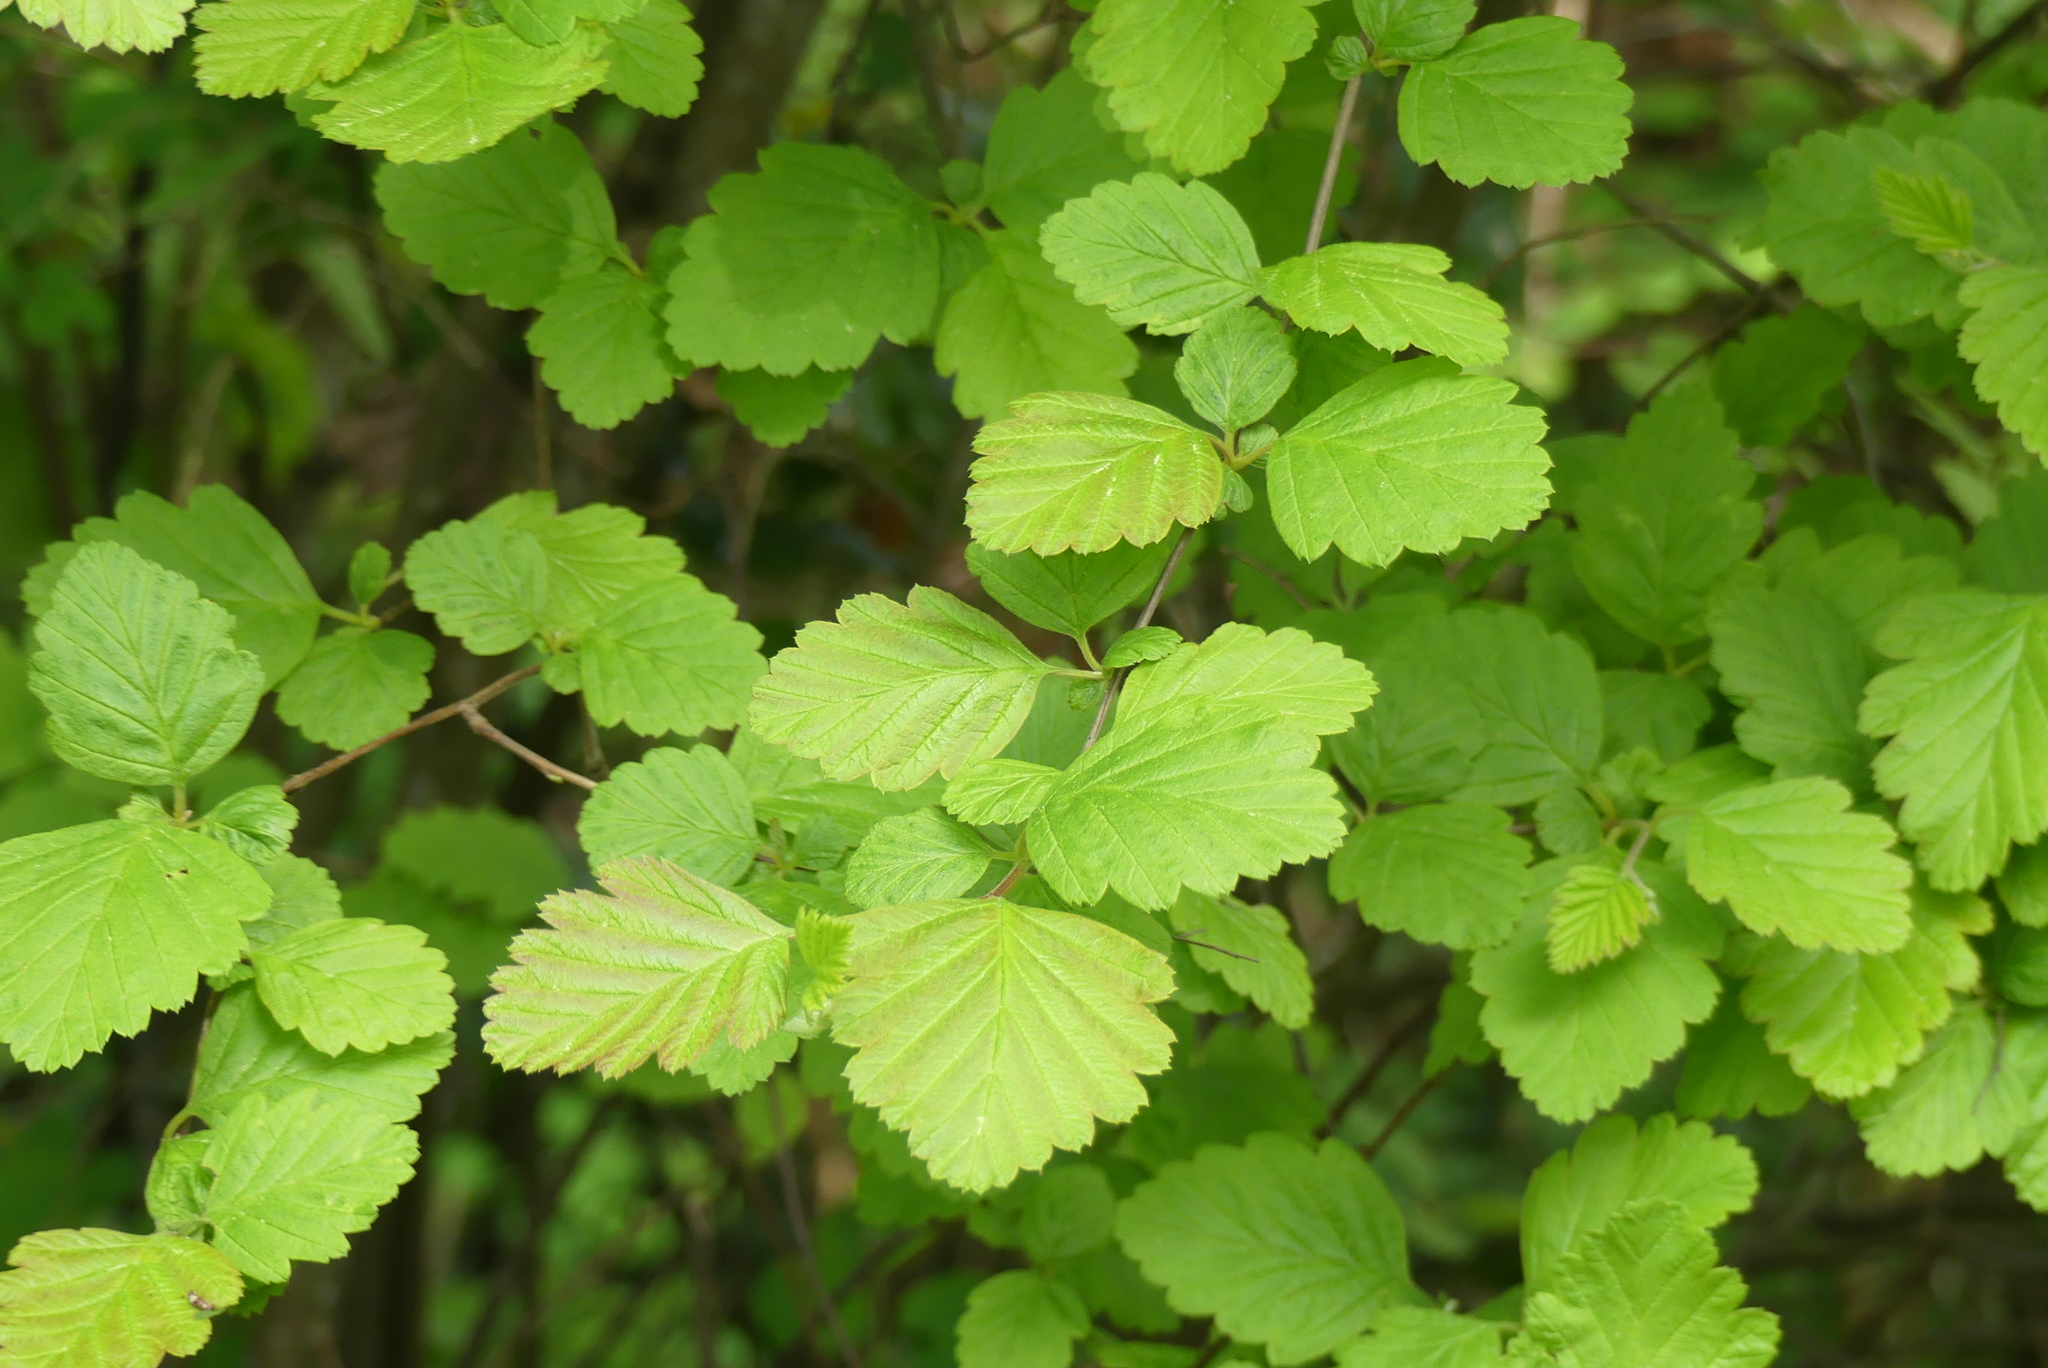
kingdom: Plantae
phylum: Tracheophyta
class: Magnoliopsida
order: Rosales
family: Rosaceae
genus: Holodiscus
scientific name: Holodiscus discolor
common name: Oceanspray
